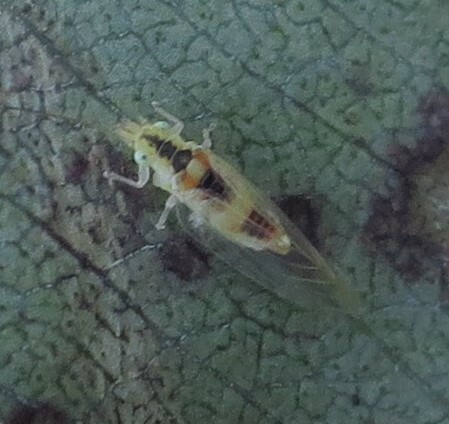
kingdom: Animalia
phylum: Arthropoda
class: Insecta
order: Hemiptera
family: Aphalaridae
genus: Glycaspis
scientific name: Glycaspis granulata
